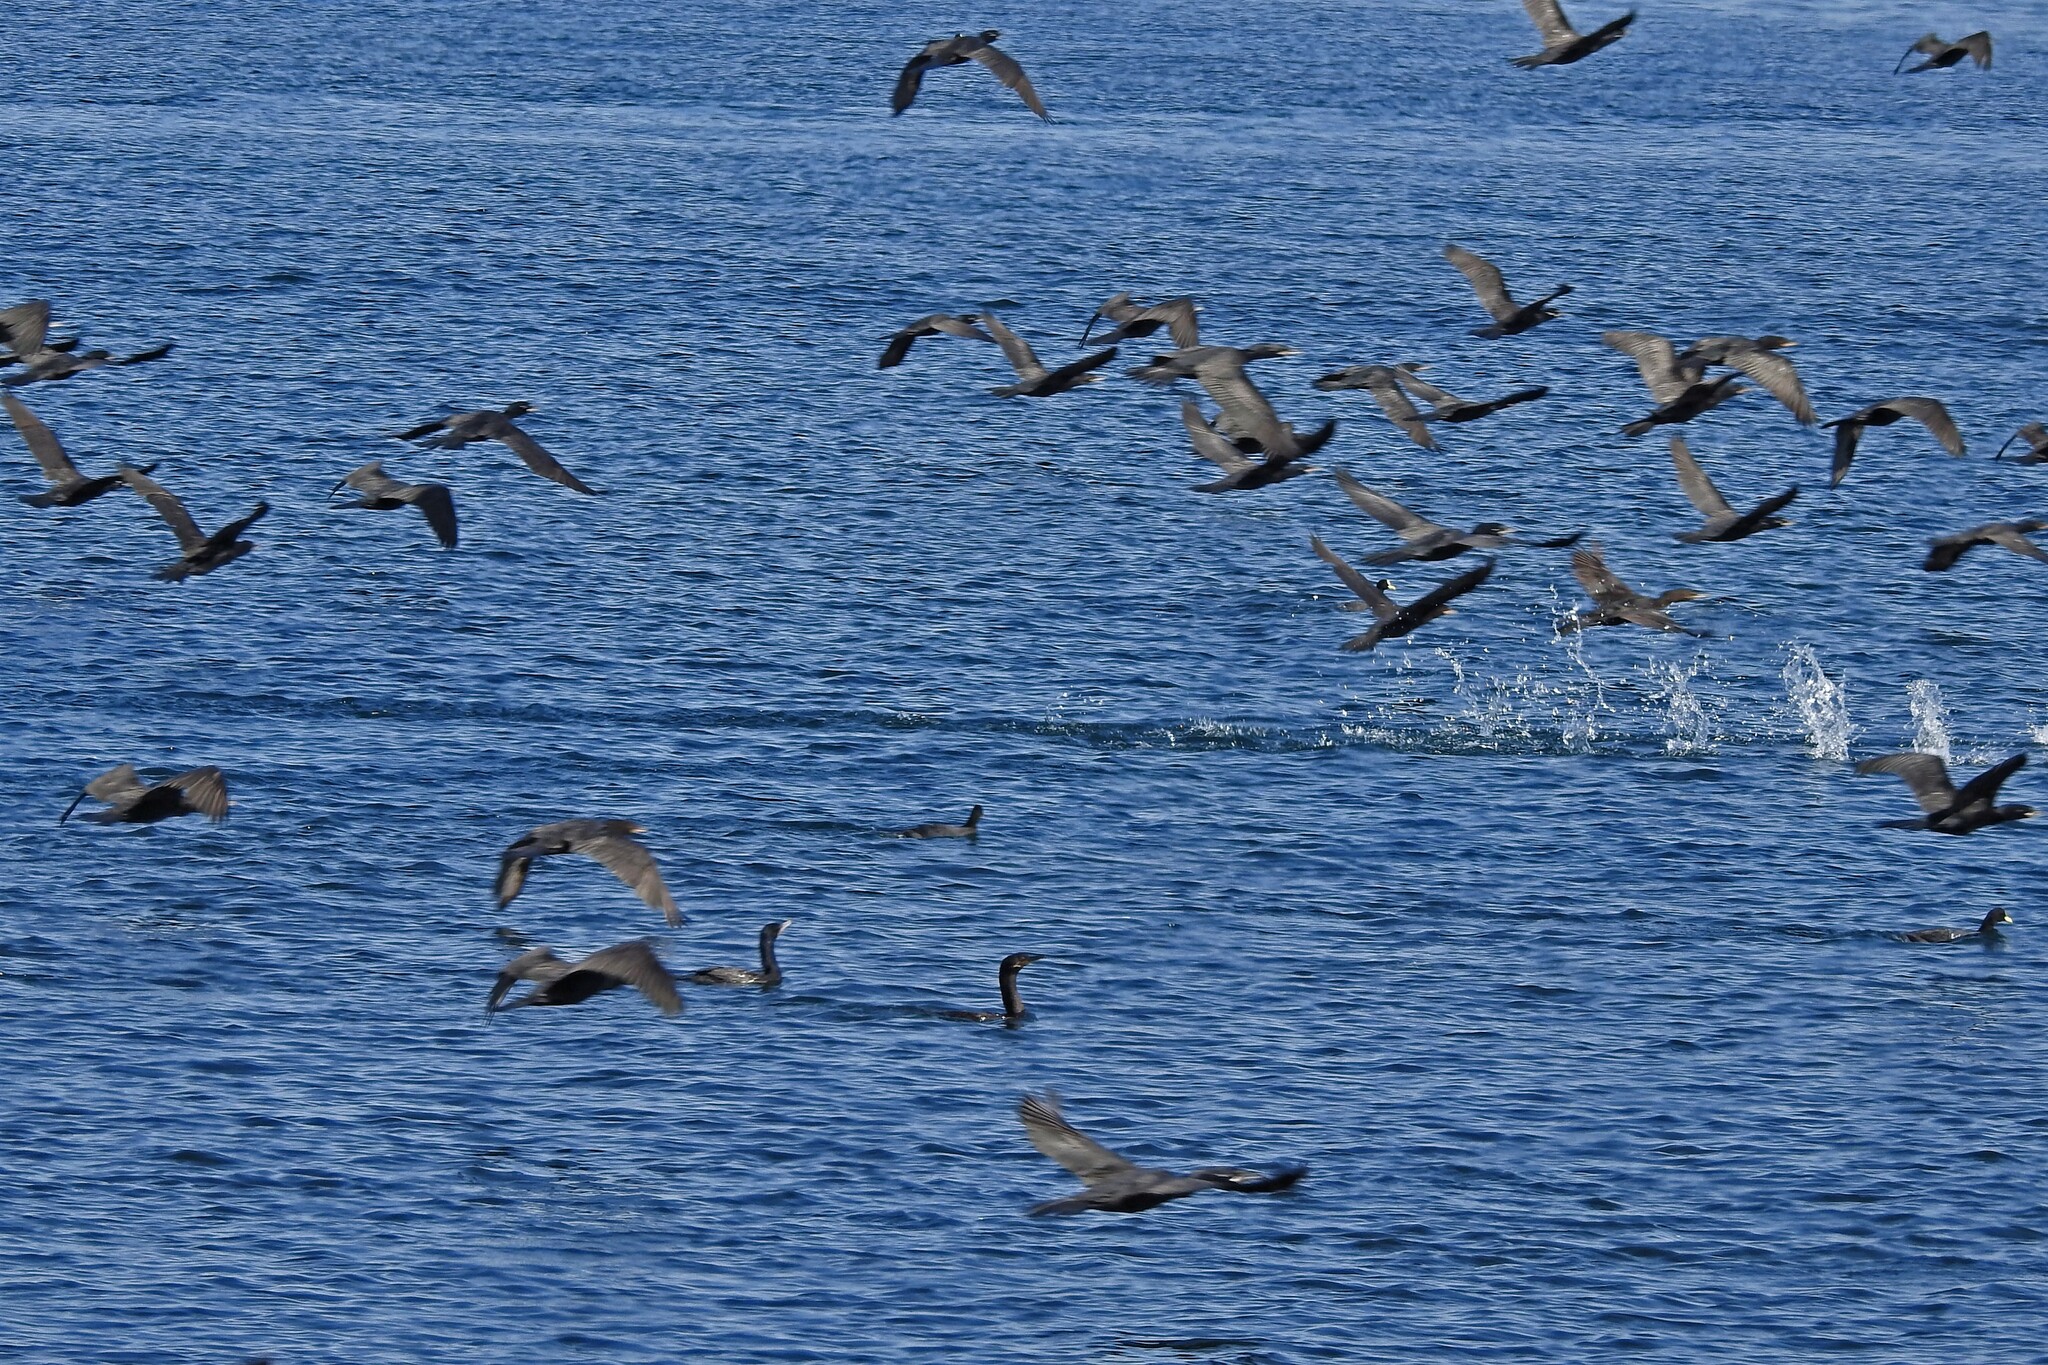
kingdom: Animalia
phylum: Chordata
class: Aves
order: Suliformes
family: Phalacrocoracidae
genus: Phalacrocorax
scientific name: Phalacrocorax brasilianus
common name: Neotropic cormorant
